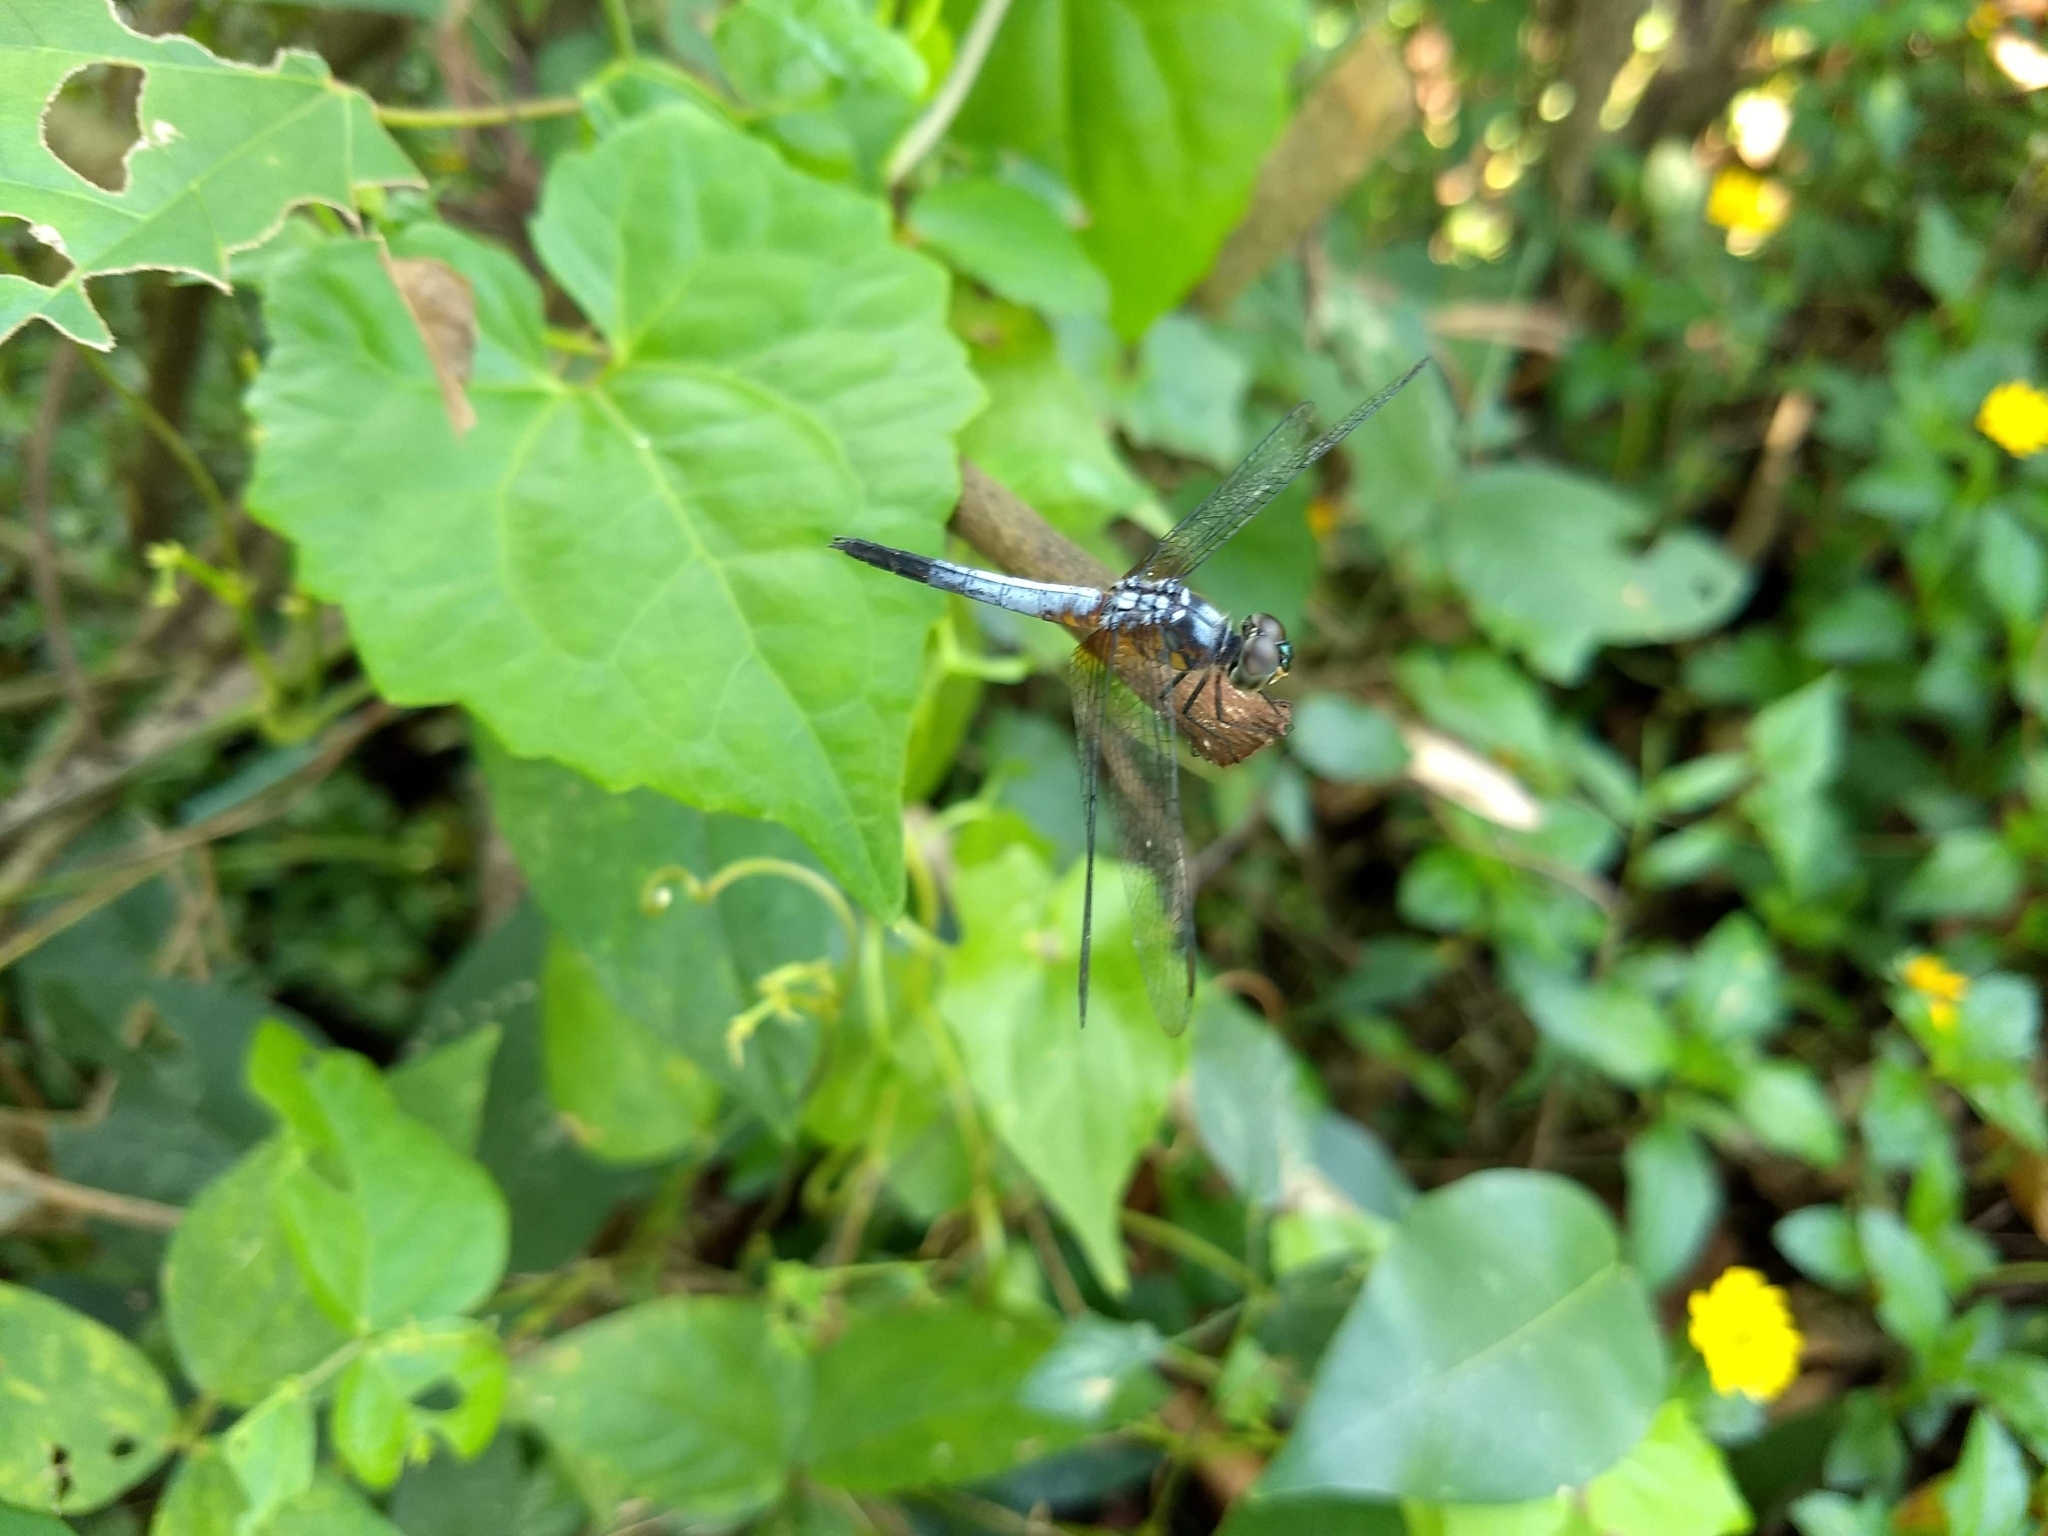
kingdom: Animalia
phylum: Arthropoda
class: Insecta
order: Odonata
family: Libellulidae
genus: Brachydiplax
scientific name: Brachydiplax chalybea
